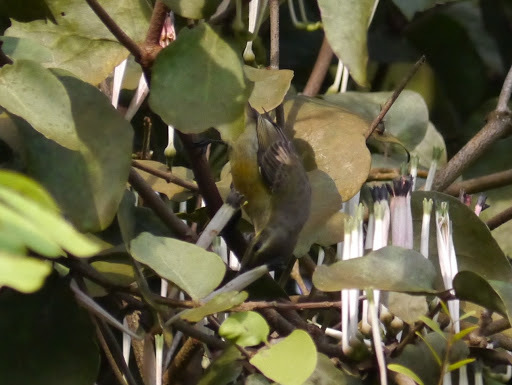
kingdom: Animalia
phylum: Chordata
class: Aves
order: Passeriformes
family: Nectariniidae
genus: Cinnyris
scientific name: Cinnyris superbus
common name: Superb sunbird
